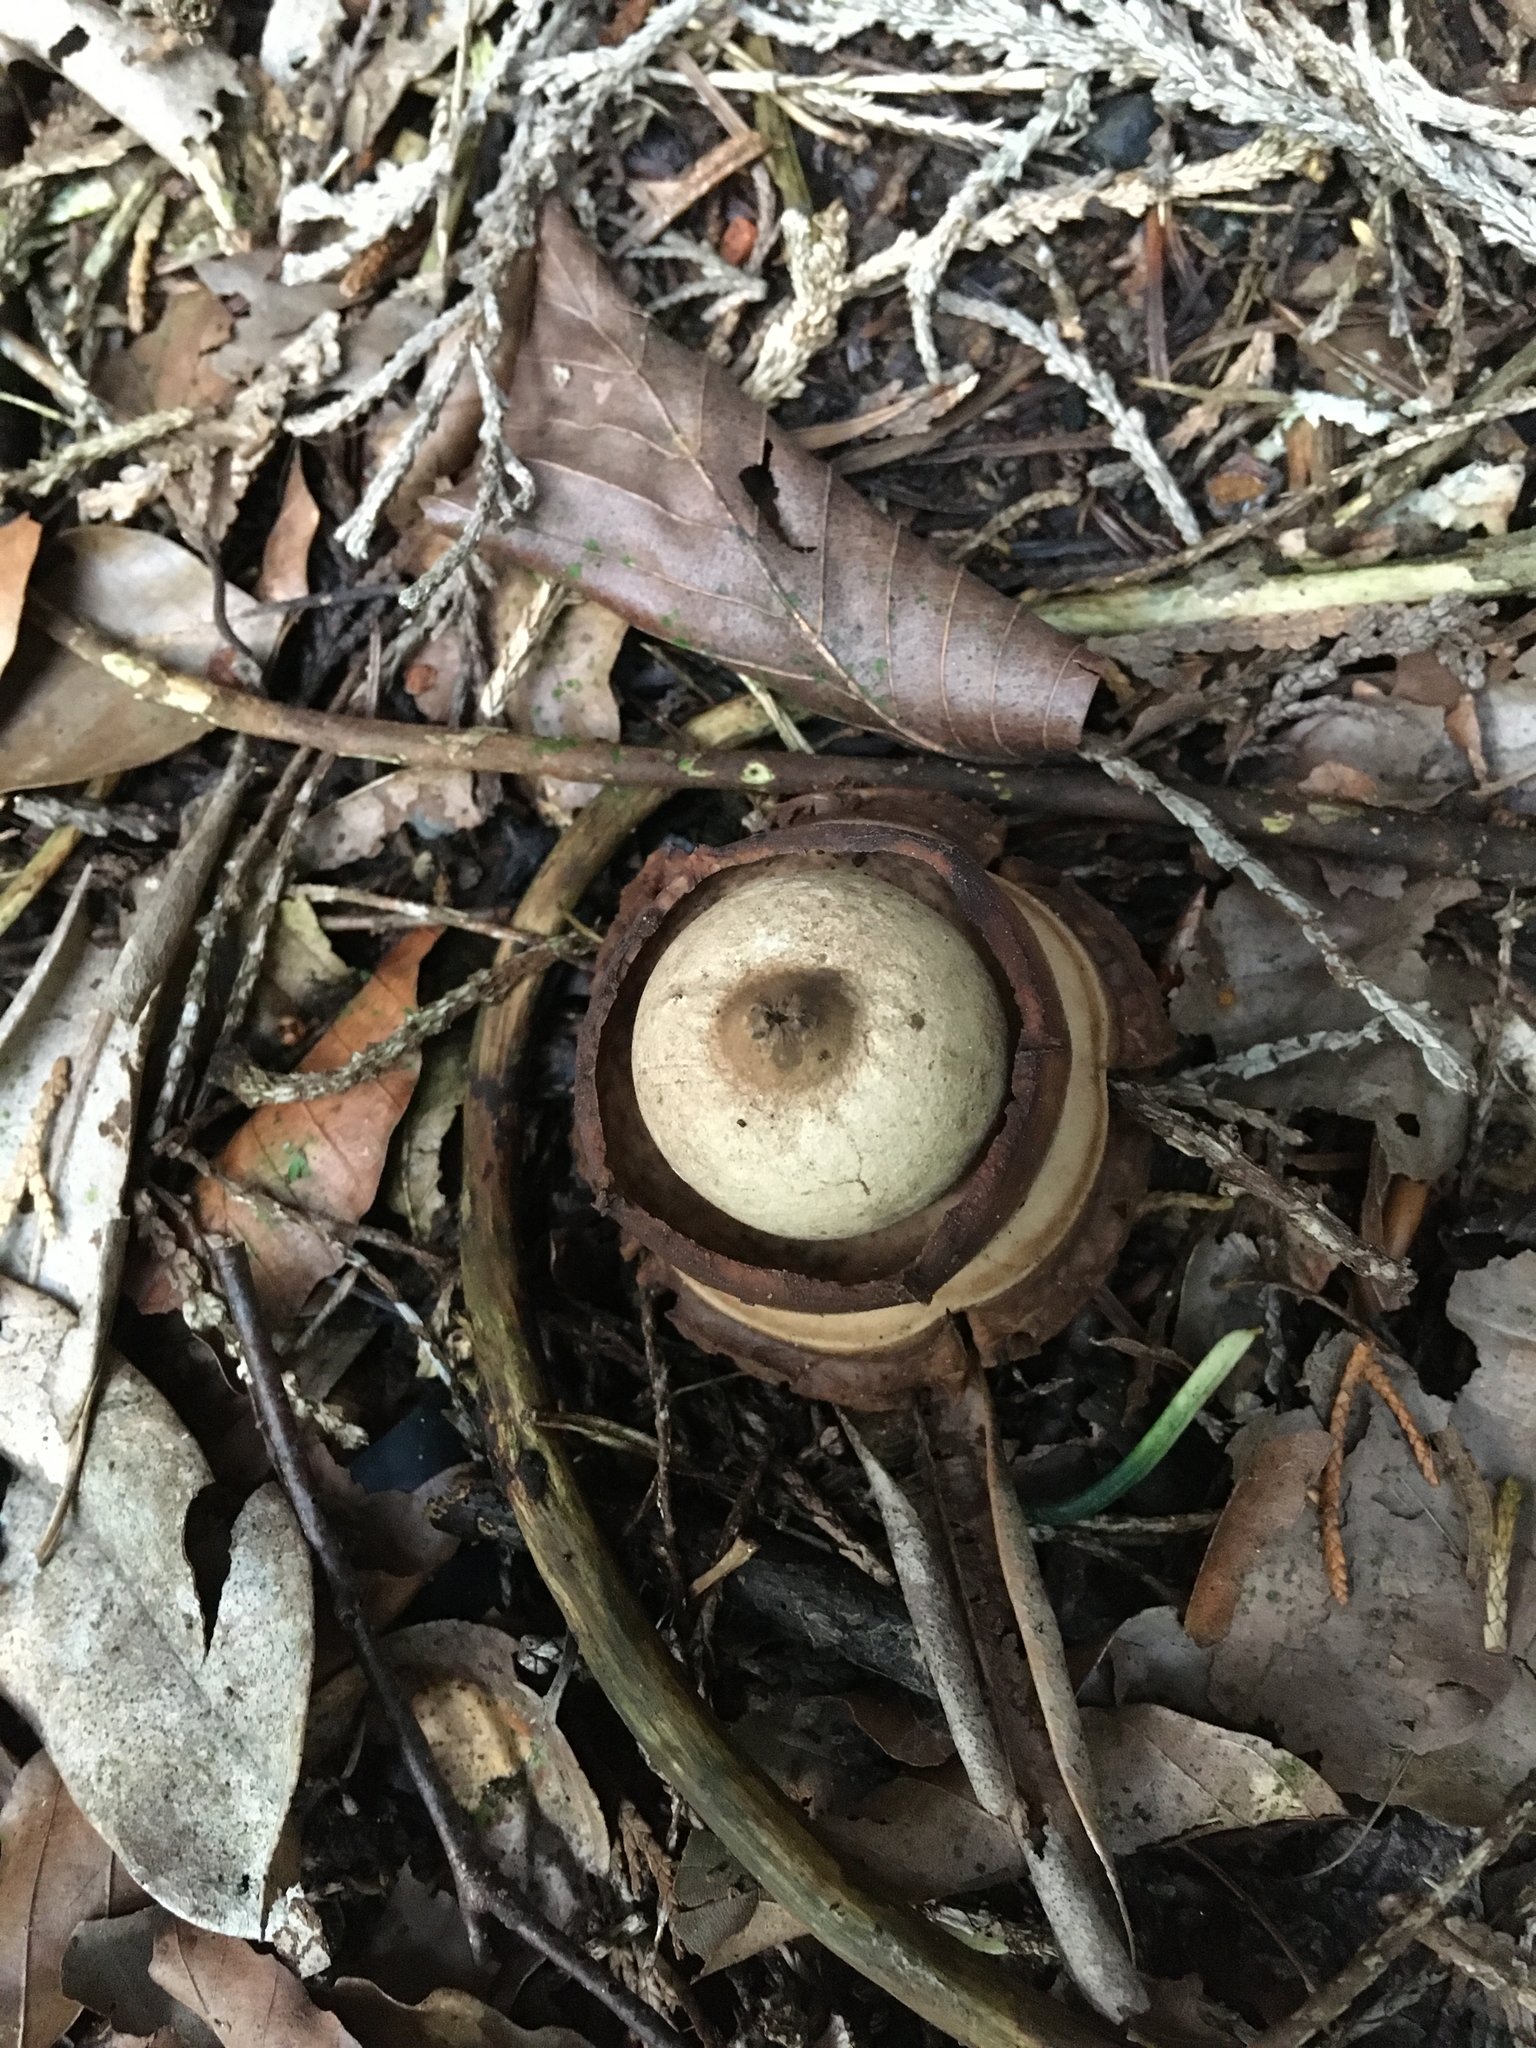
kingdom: Fungi
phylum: Basidiomycota
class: Agaricomycetes
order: Geastrales
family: Geastraceae
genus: Geastrum
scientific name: Geastrum triplex
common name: Collared earthstar
